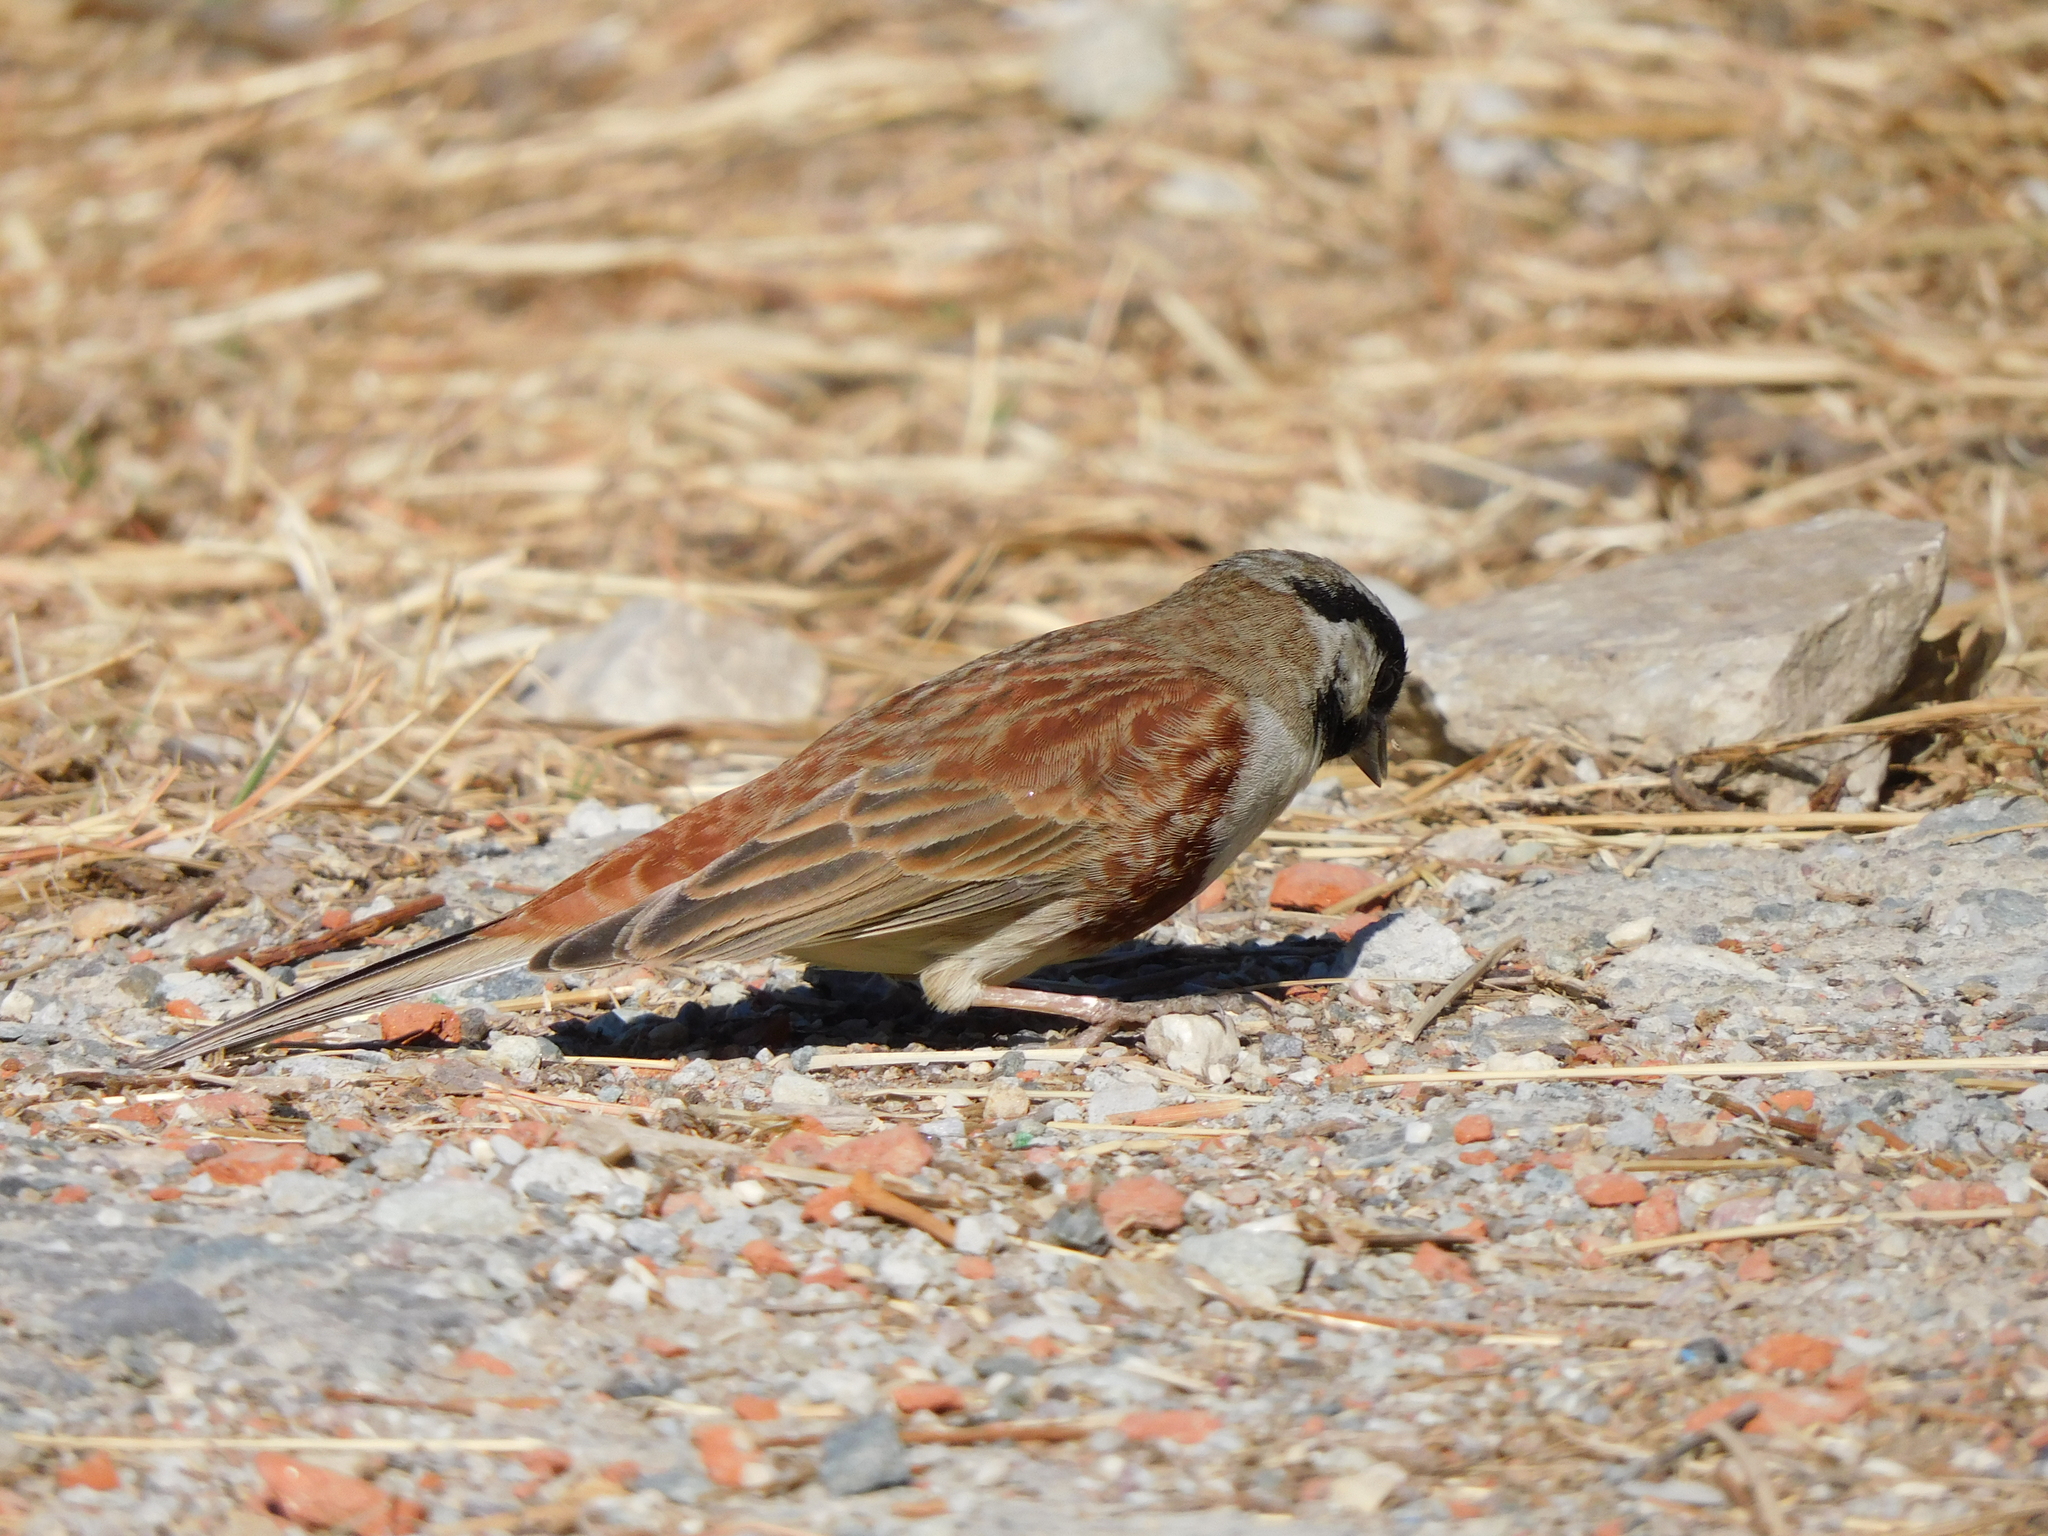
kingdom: Animalia
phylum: Chordata
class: Aves
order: Passeriformes
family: Emberizidae
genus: Emberiza
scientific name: Emberiza stewarti
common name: White-capped bunting
